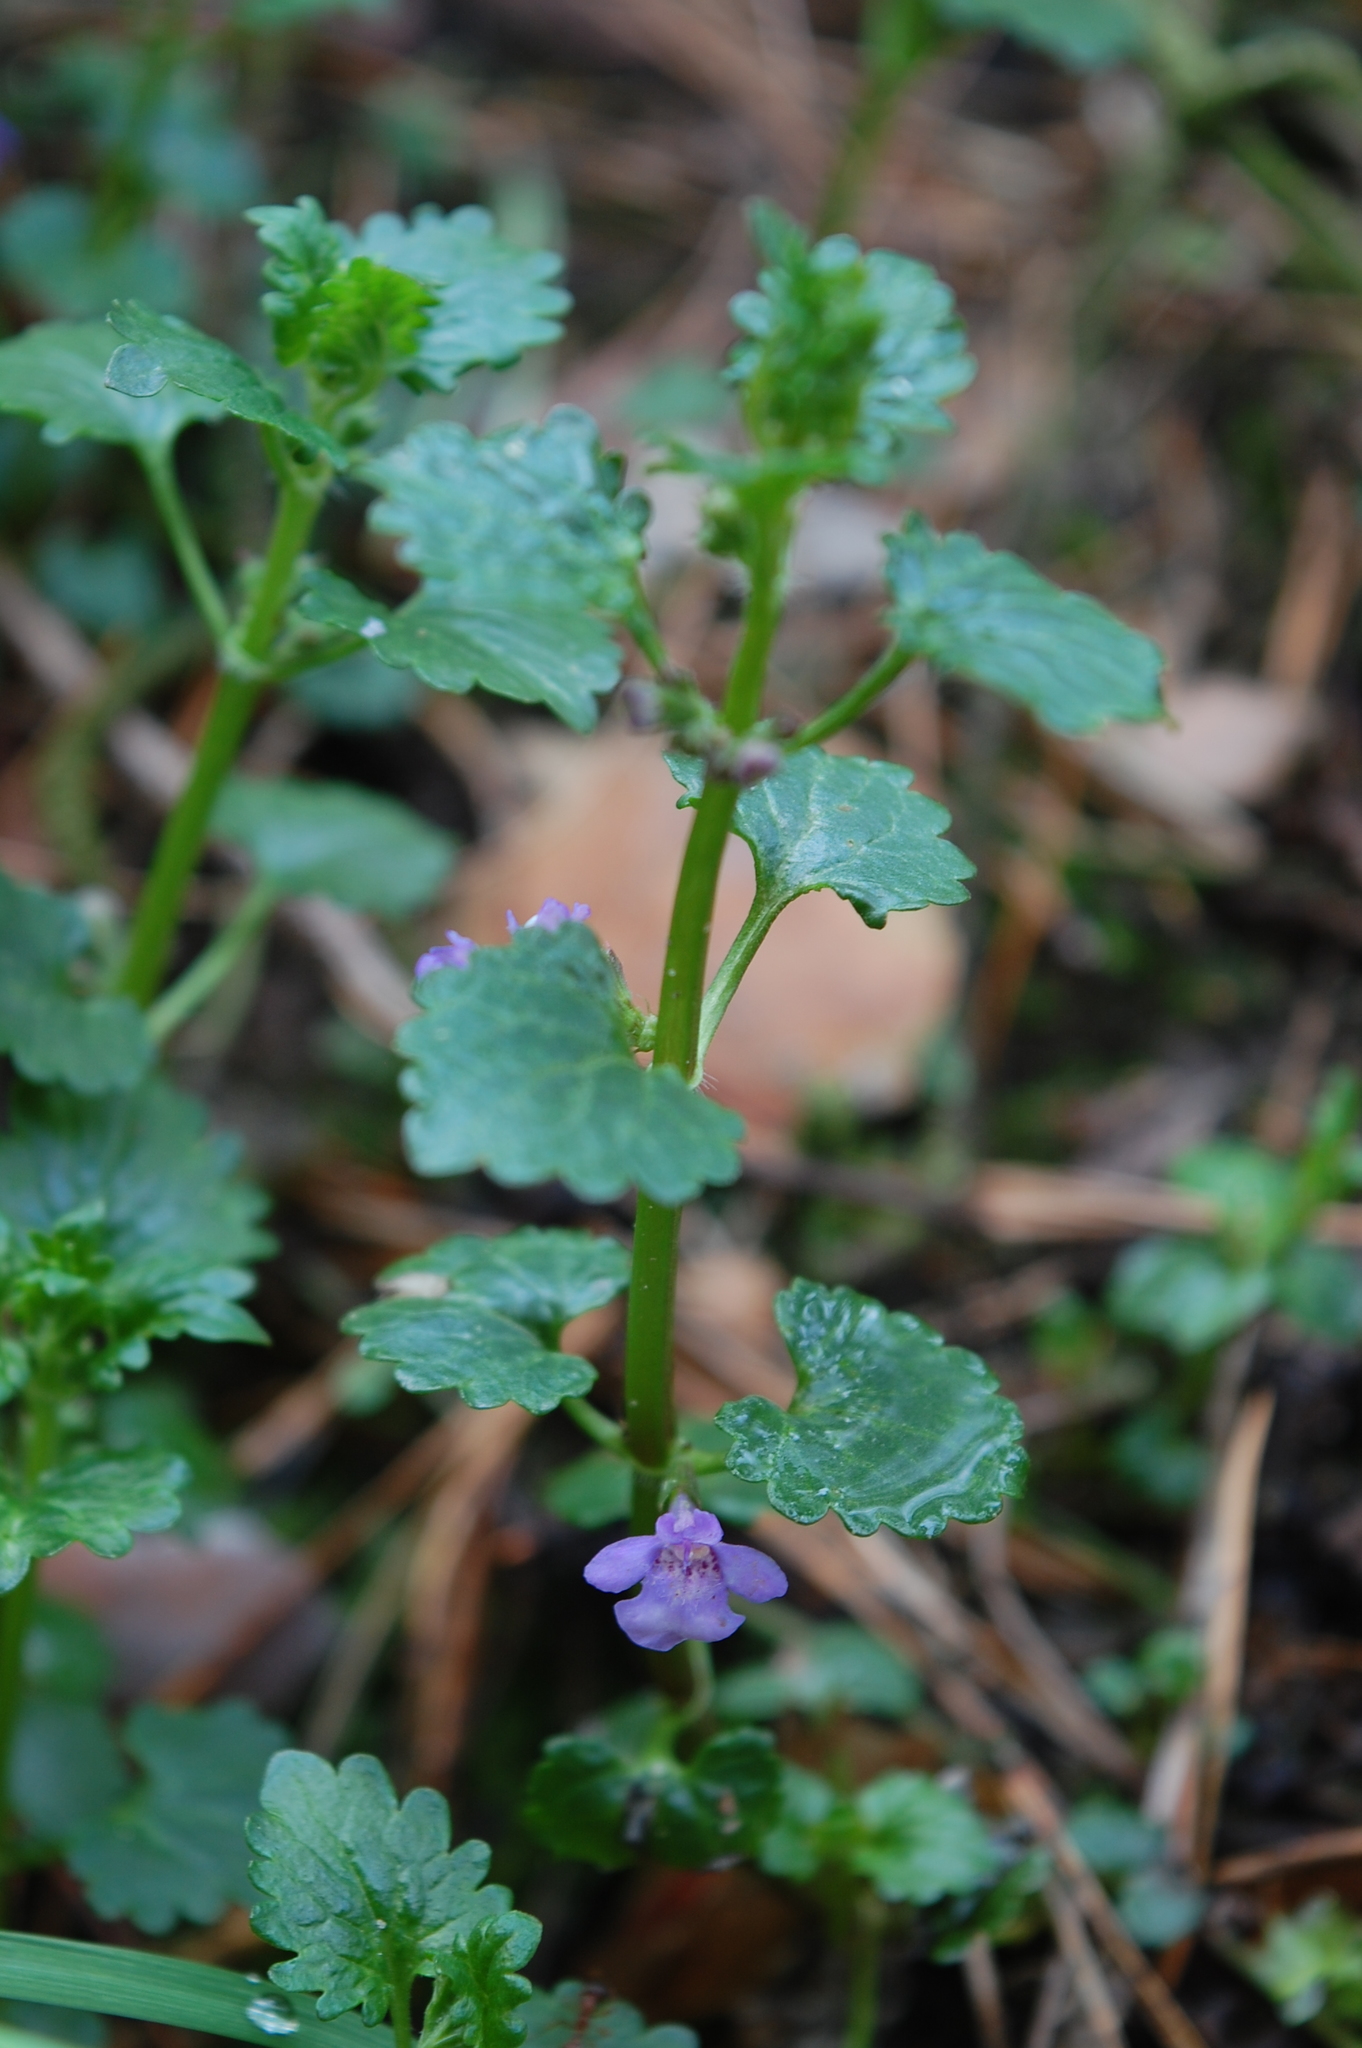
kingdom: Plantae
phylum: Tracheophyta
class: Magnoliopsida
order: Lamiales
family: Lamiaceae
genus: Glechoma
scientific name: Glechoma hederacea
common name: Ground ivy
